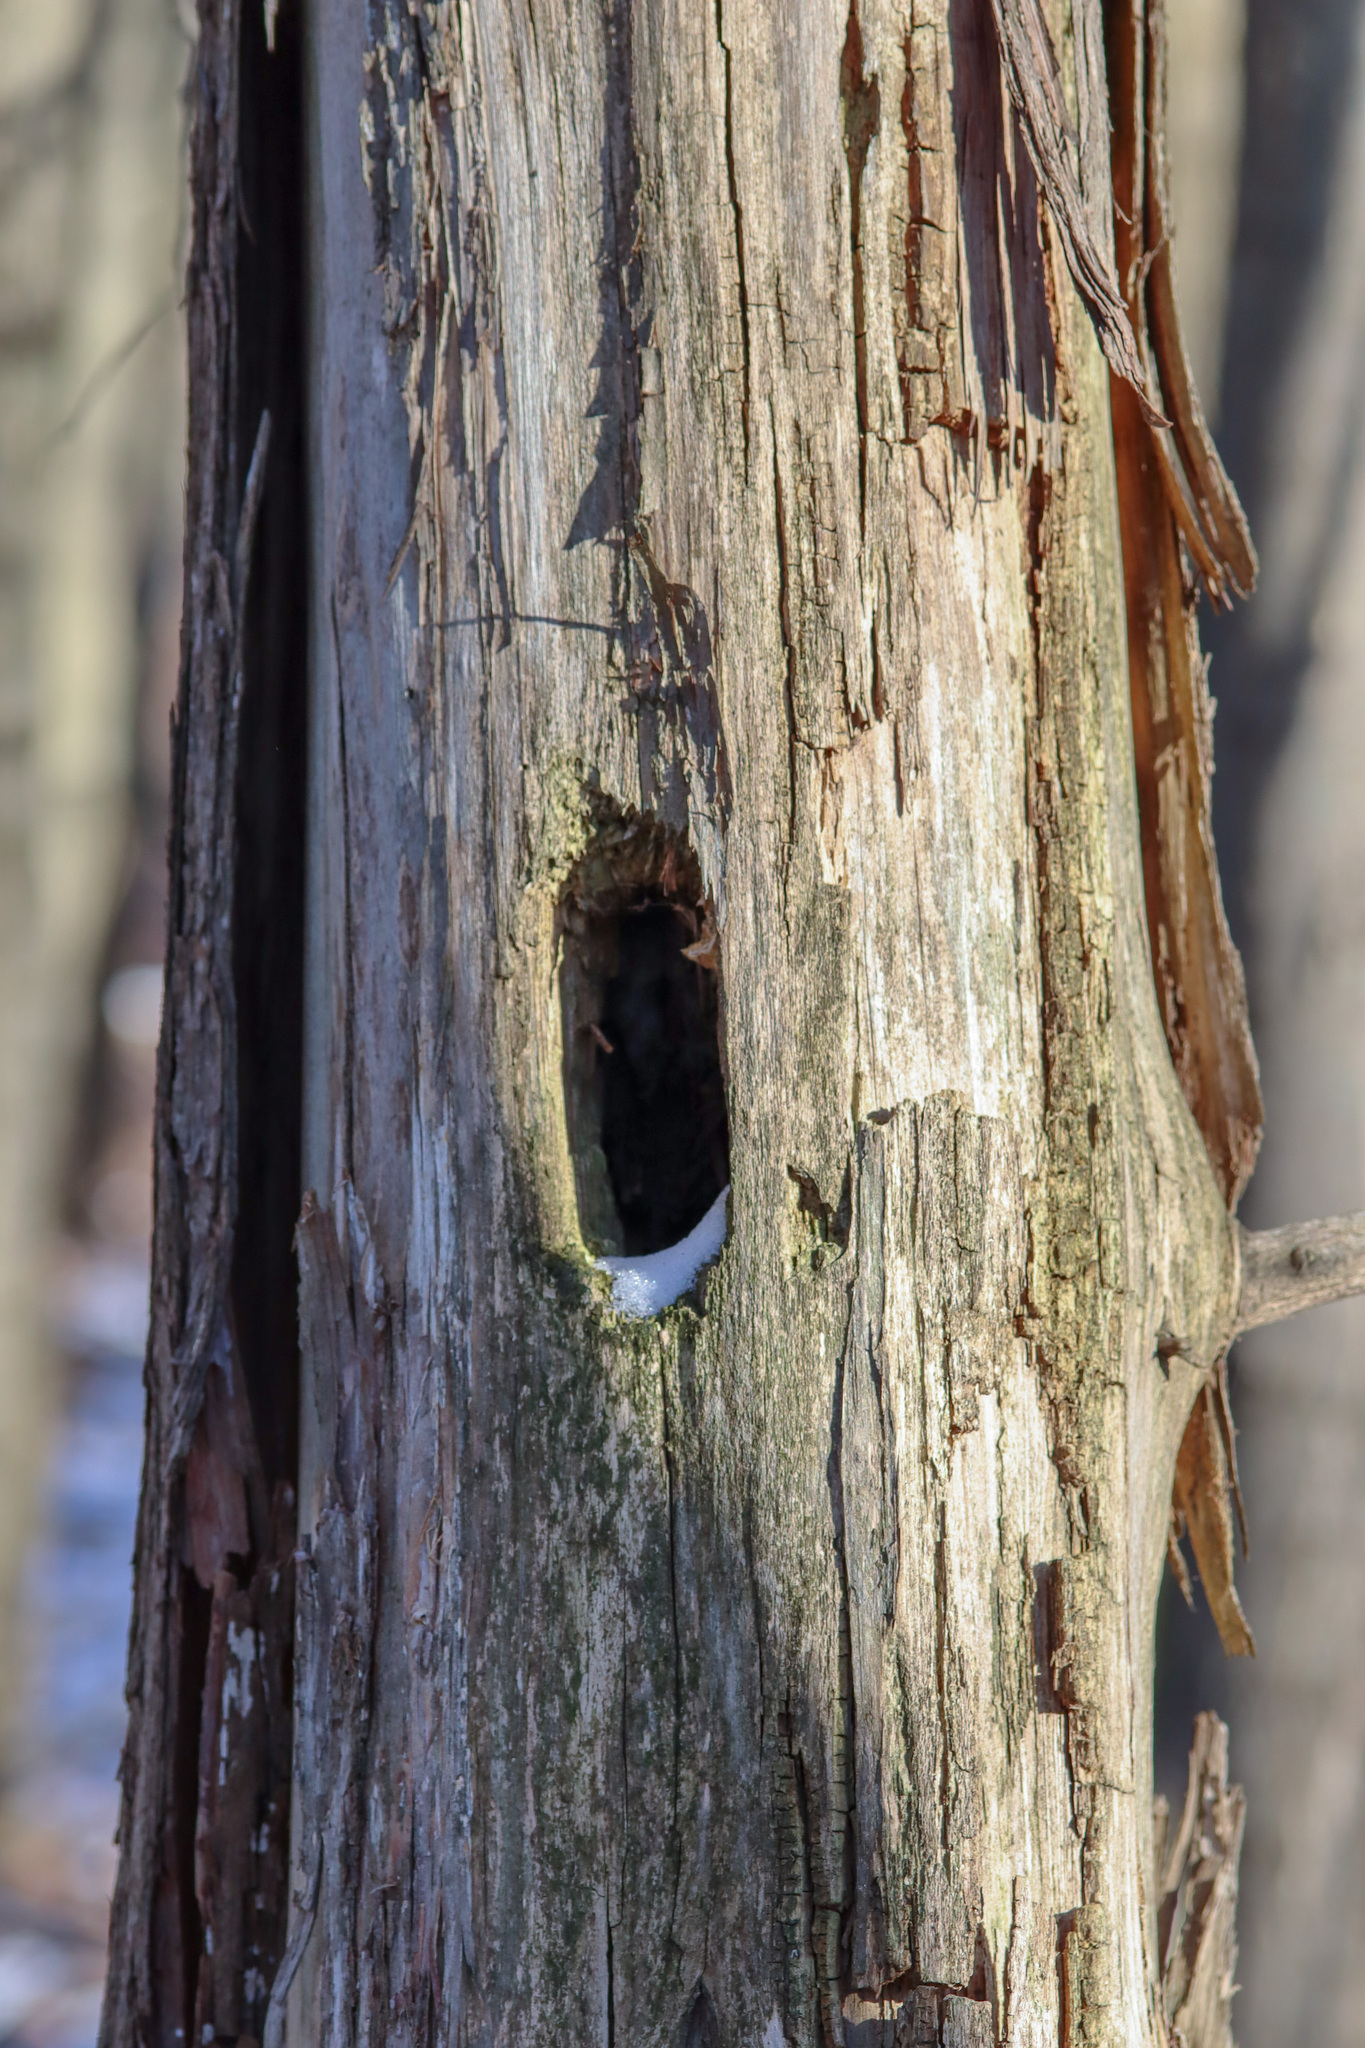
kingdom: Animalia
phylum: Chordata
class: Aves
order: Piciformes
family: Picidae
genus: Dryocopus
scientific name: Dryocopus pileatus
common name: Pileated woodpecker
